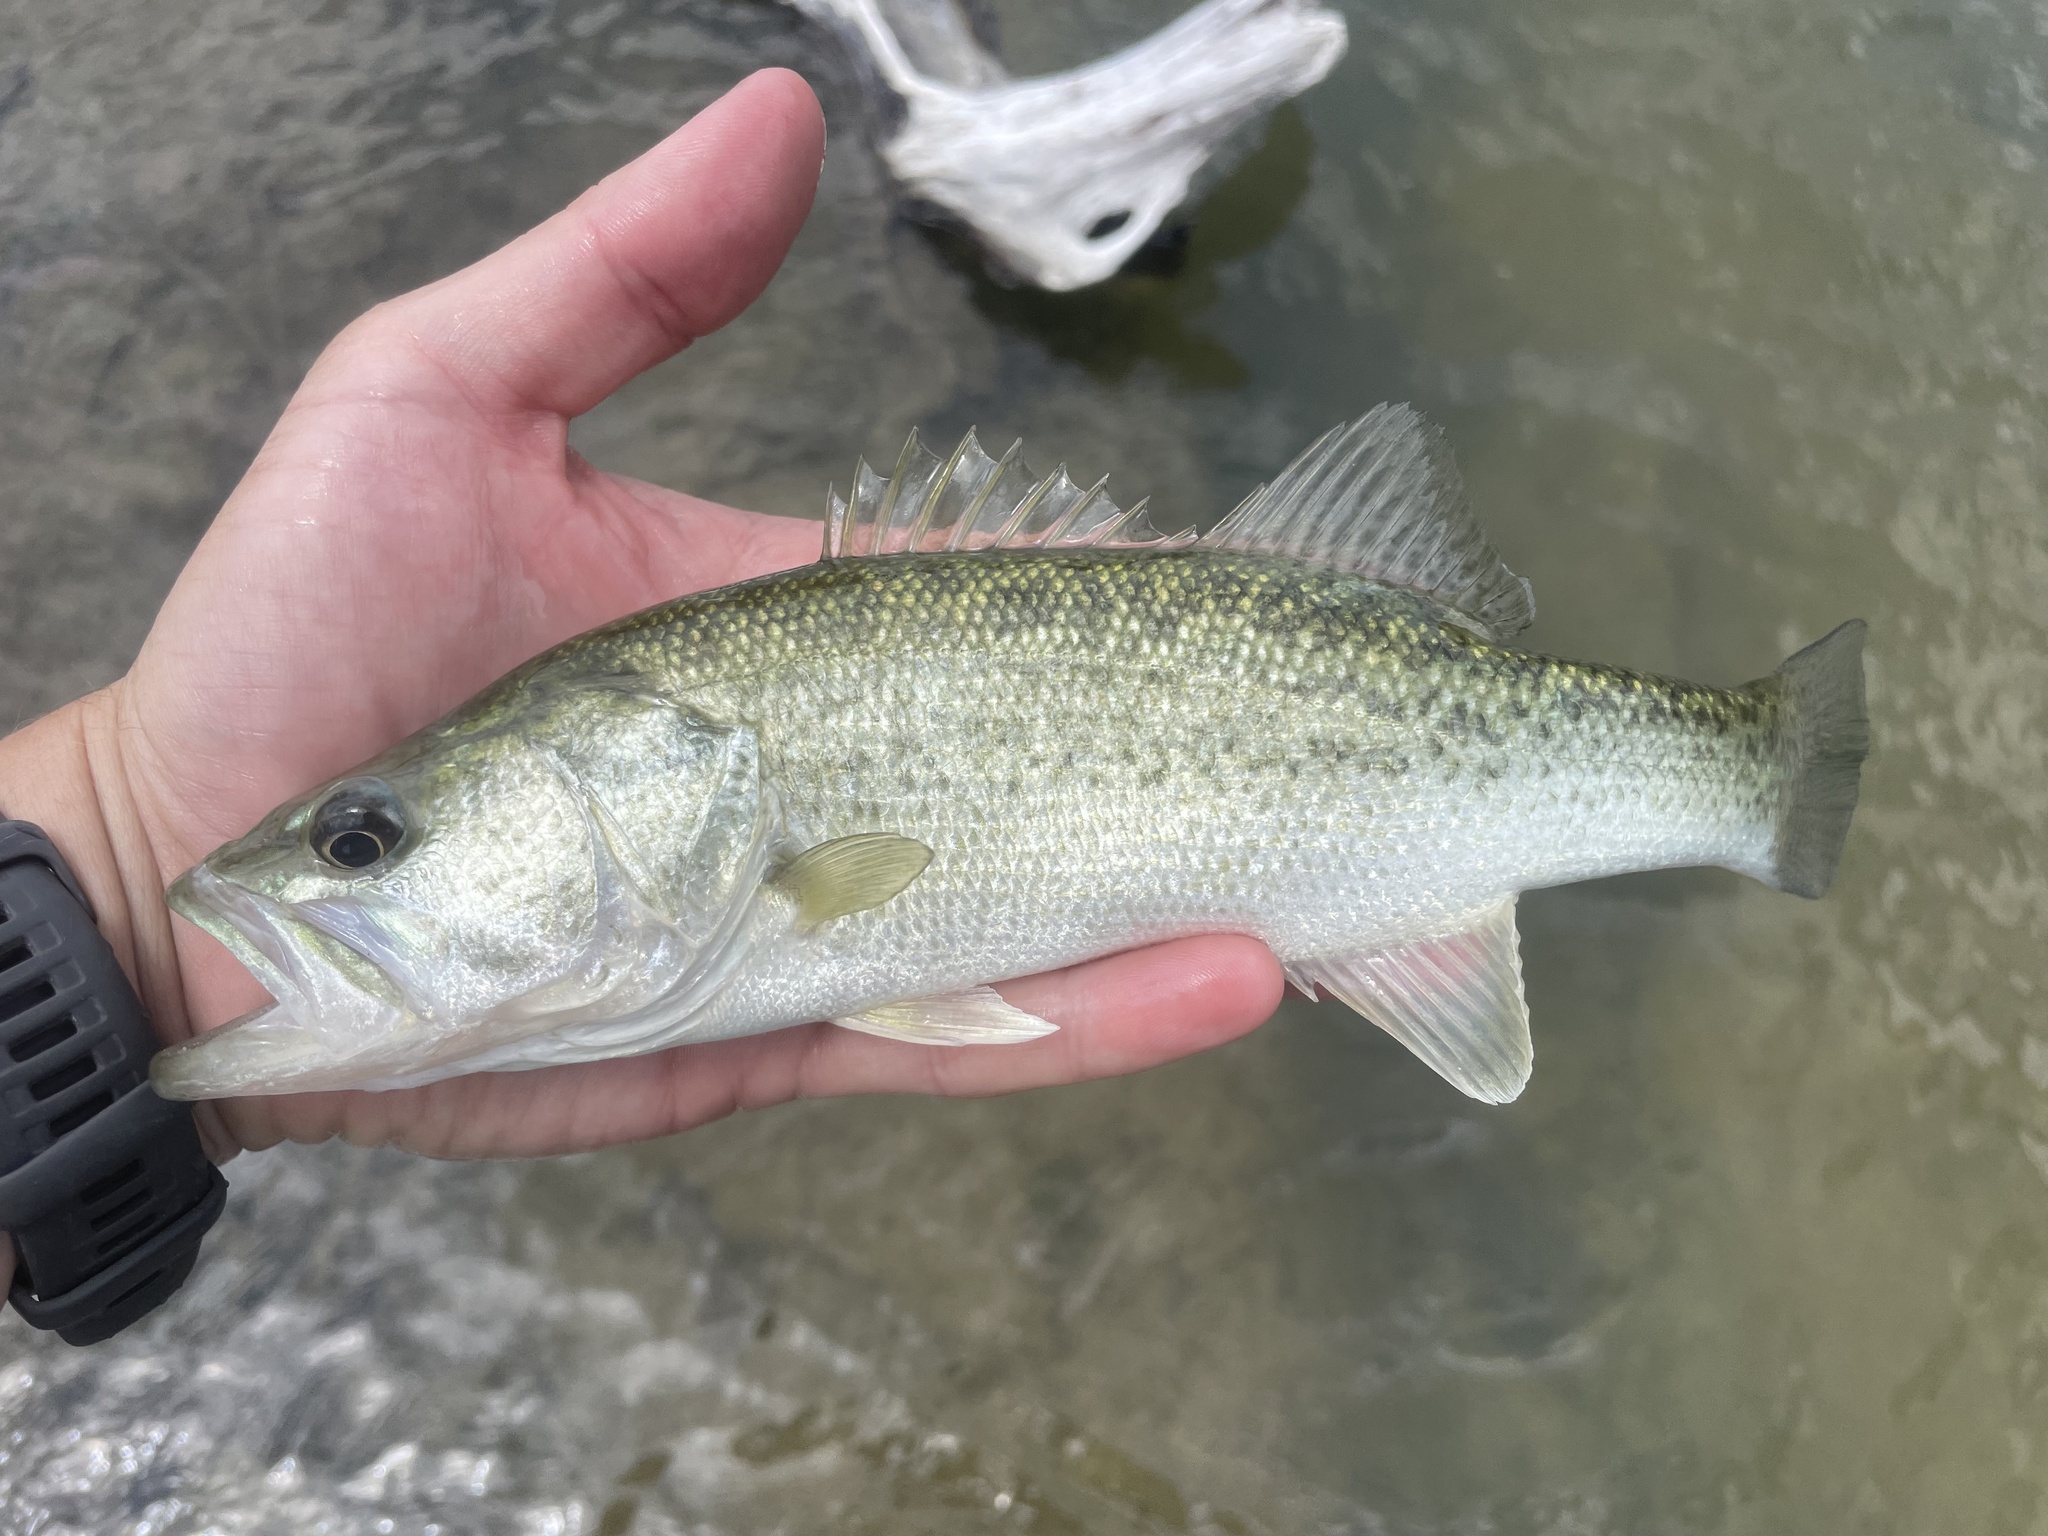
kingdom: Animalia
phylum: Chordata
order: Perciformes
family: Centrarchidae
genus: Micropterus
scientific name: Micropterus
